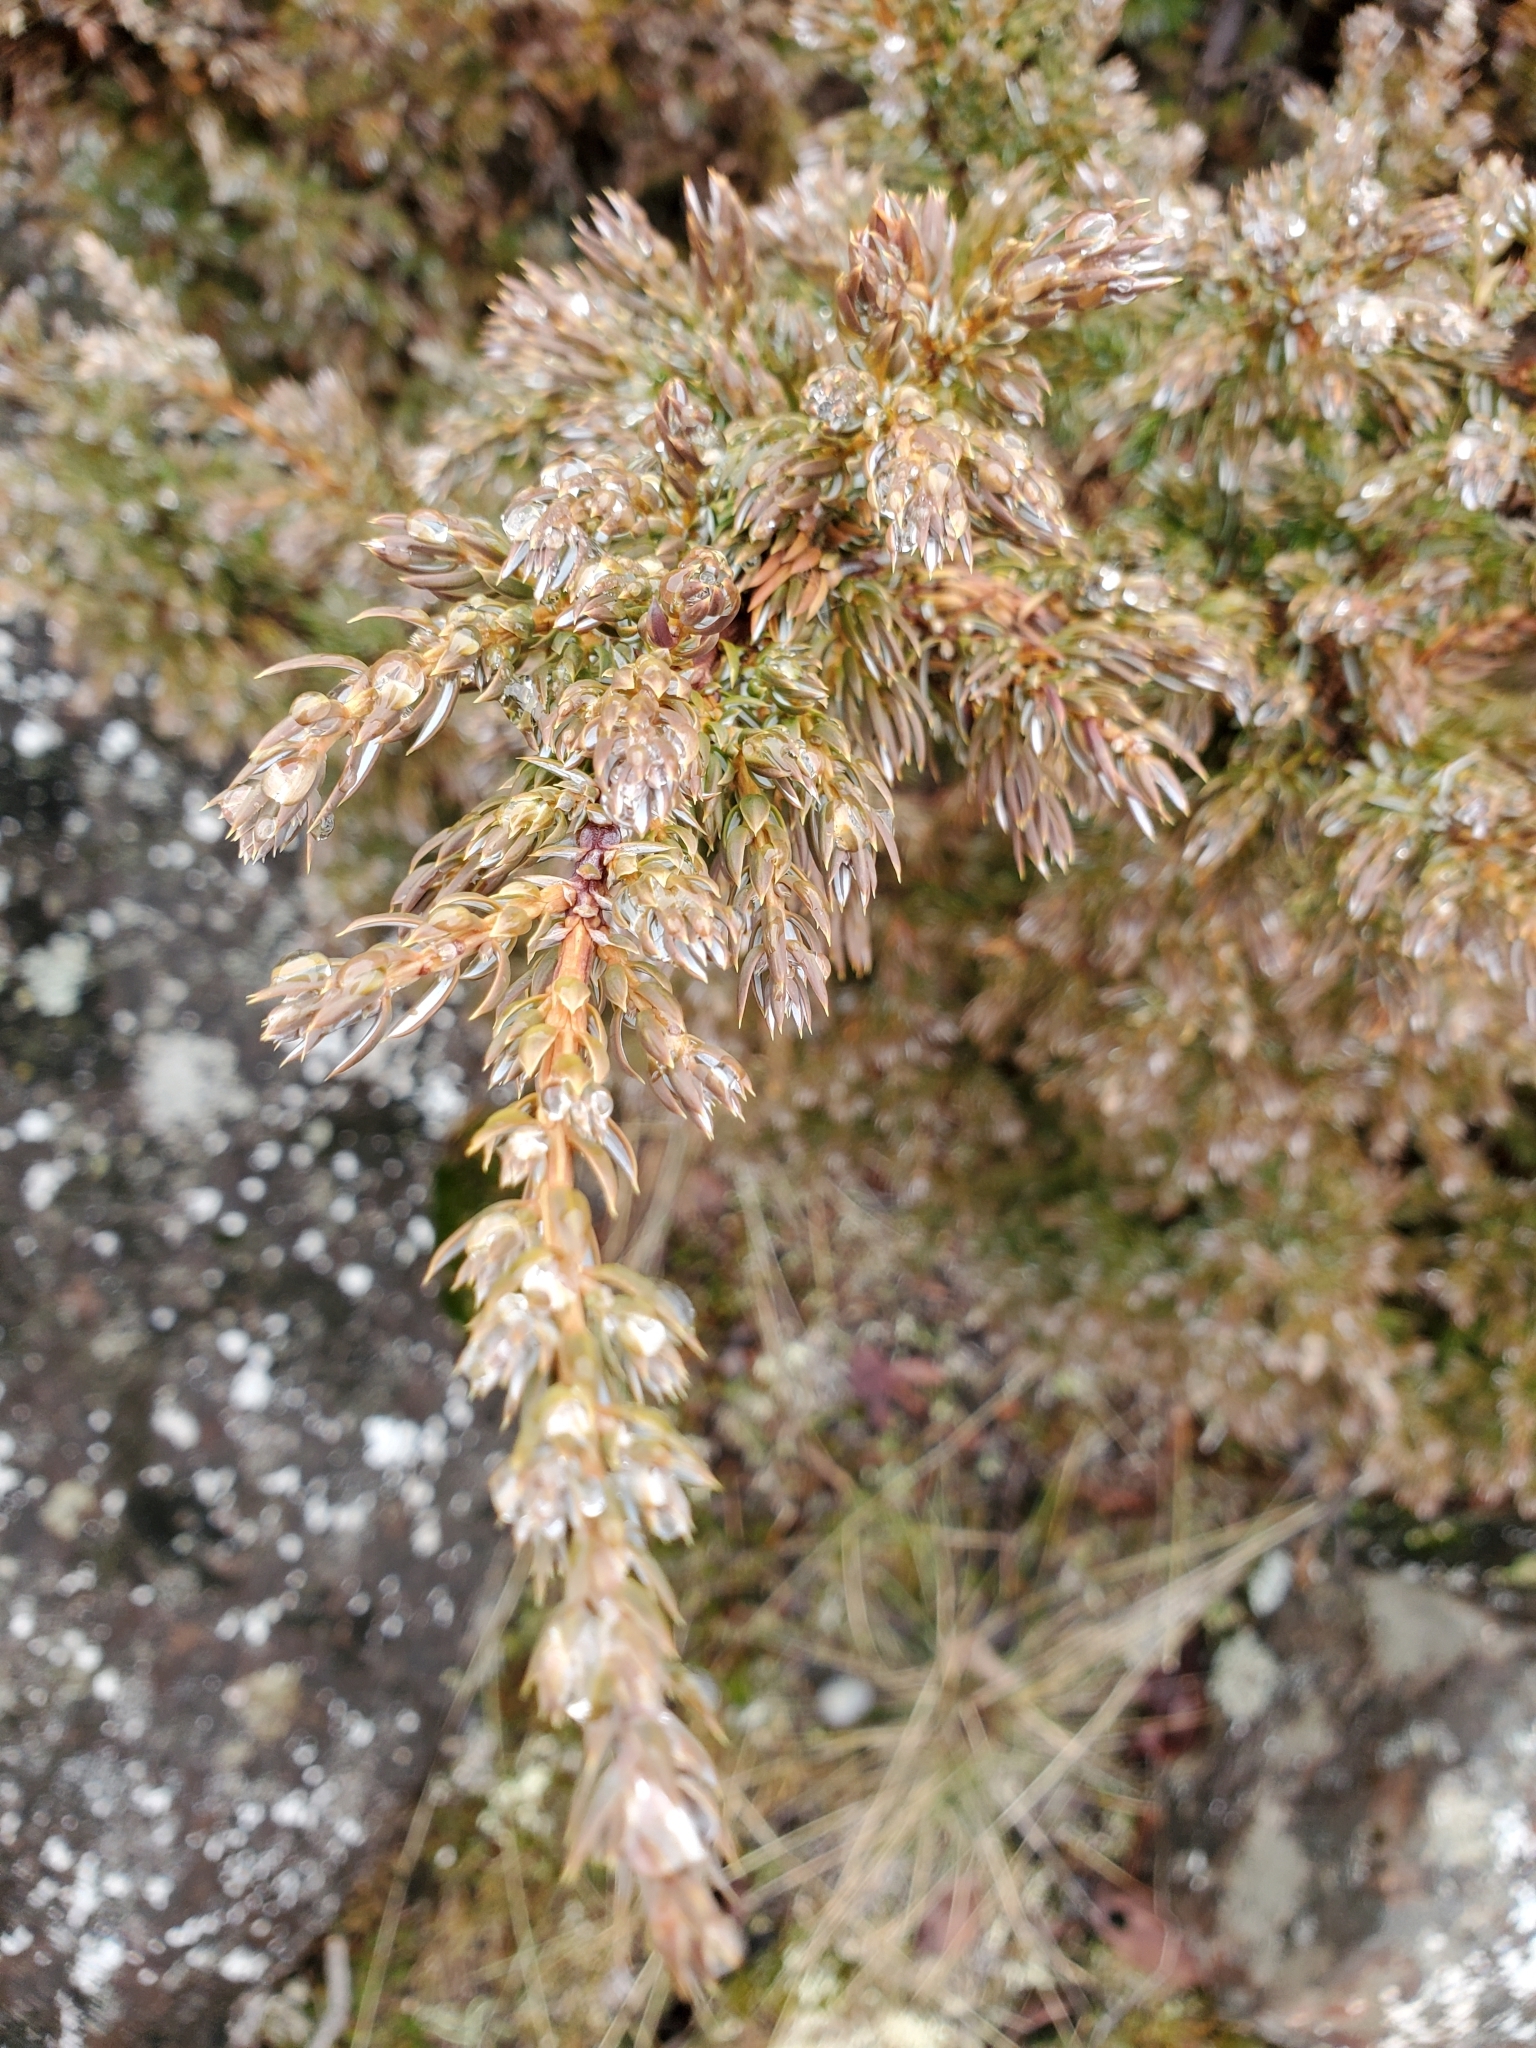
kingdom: Plantae
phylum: Tracheophyta
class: Pinopsida
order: Pinales
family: Cupressaceae
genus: Juniperus
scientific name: Juniperus communis
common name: Common juniper
